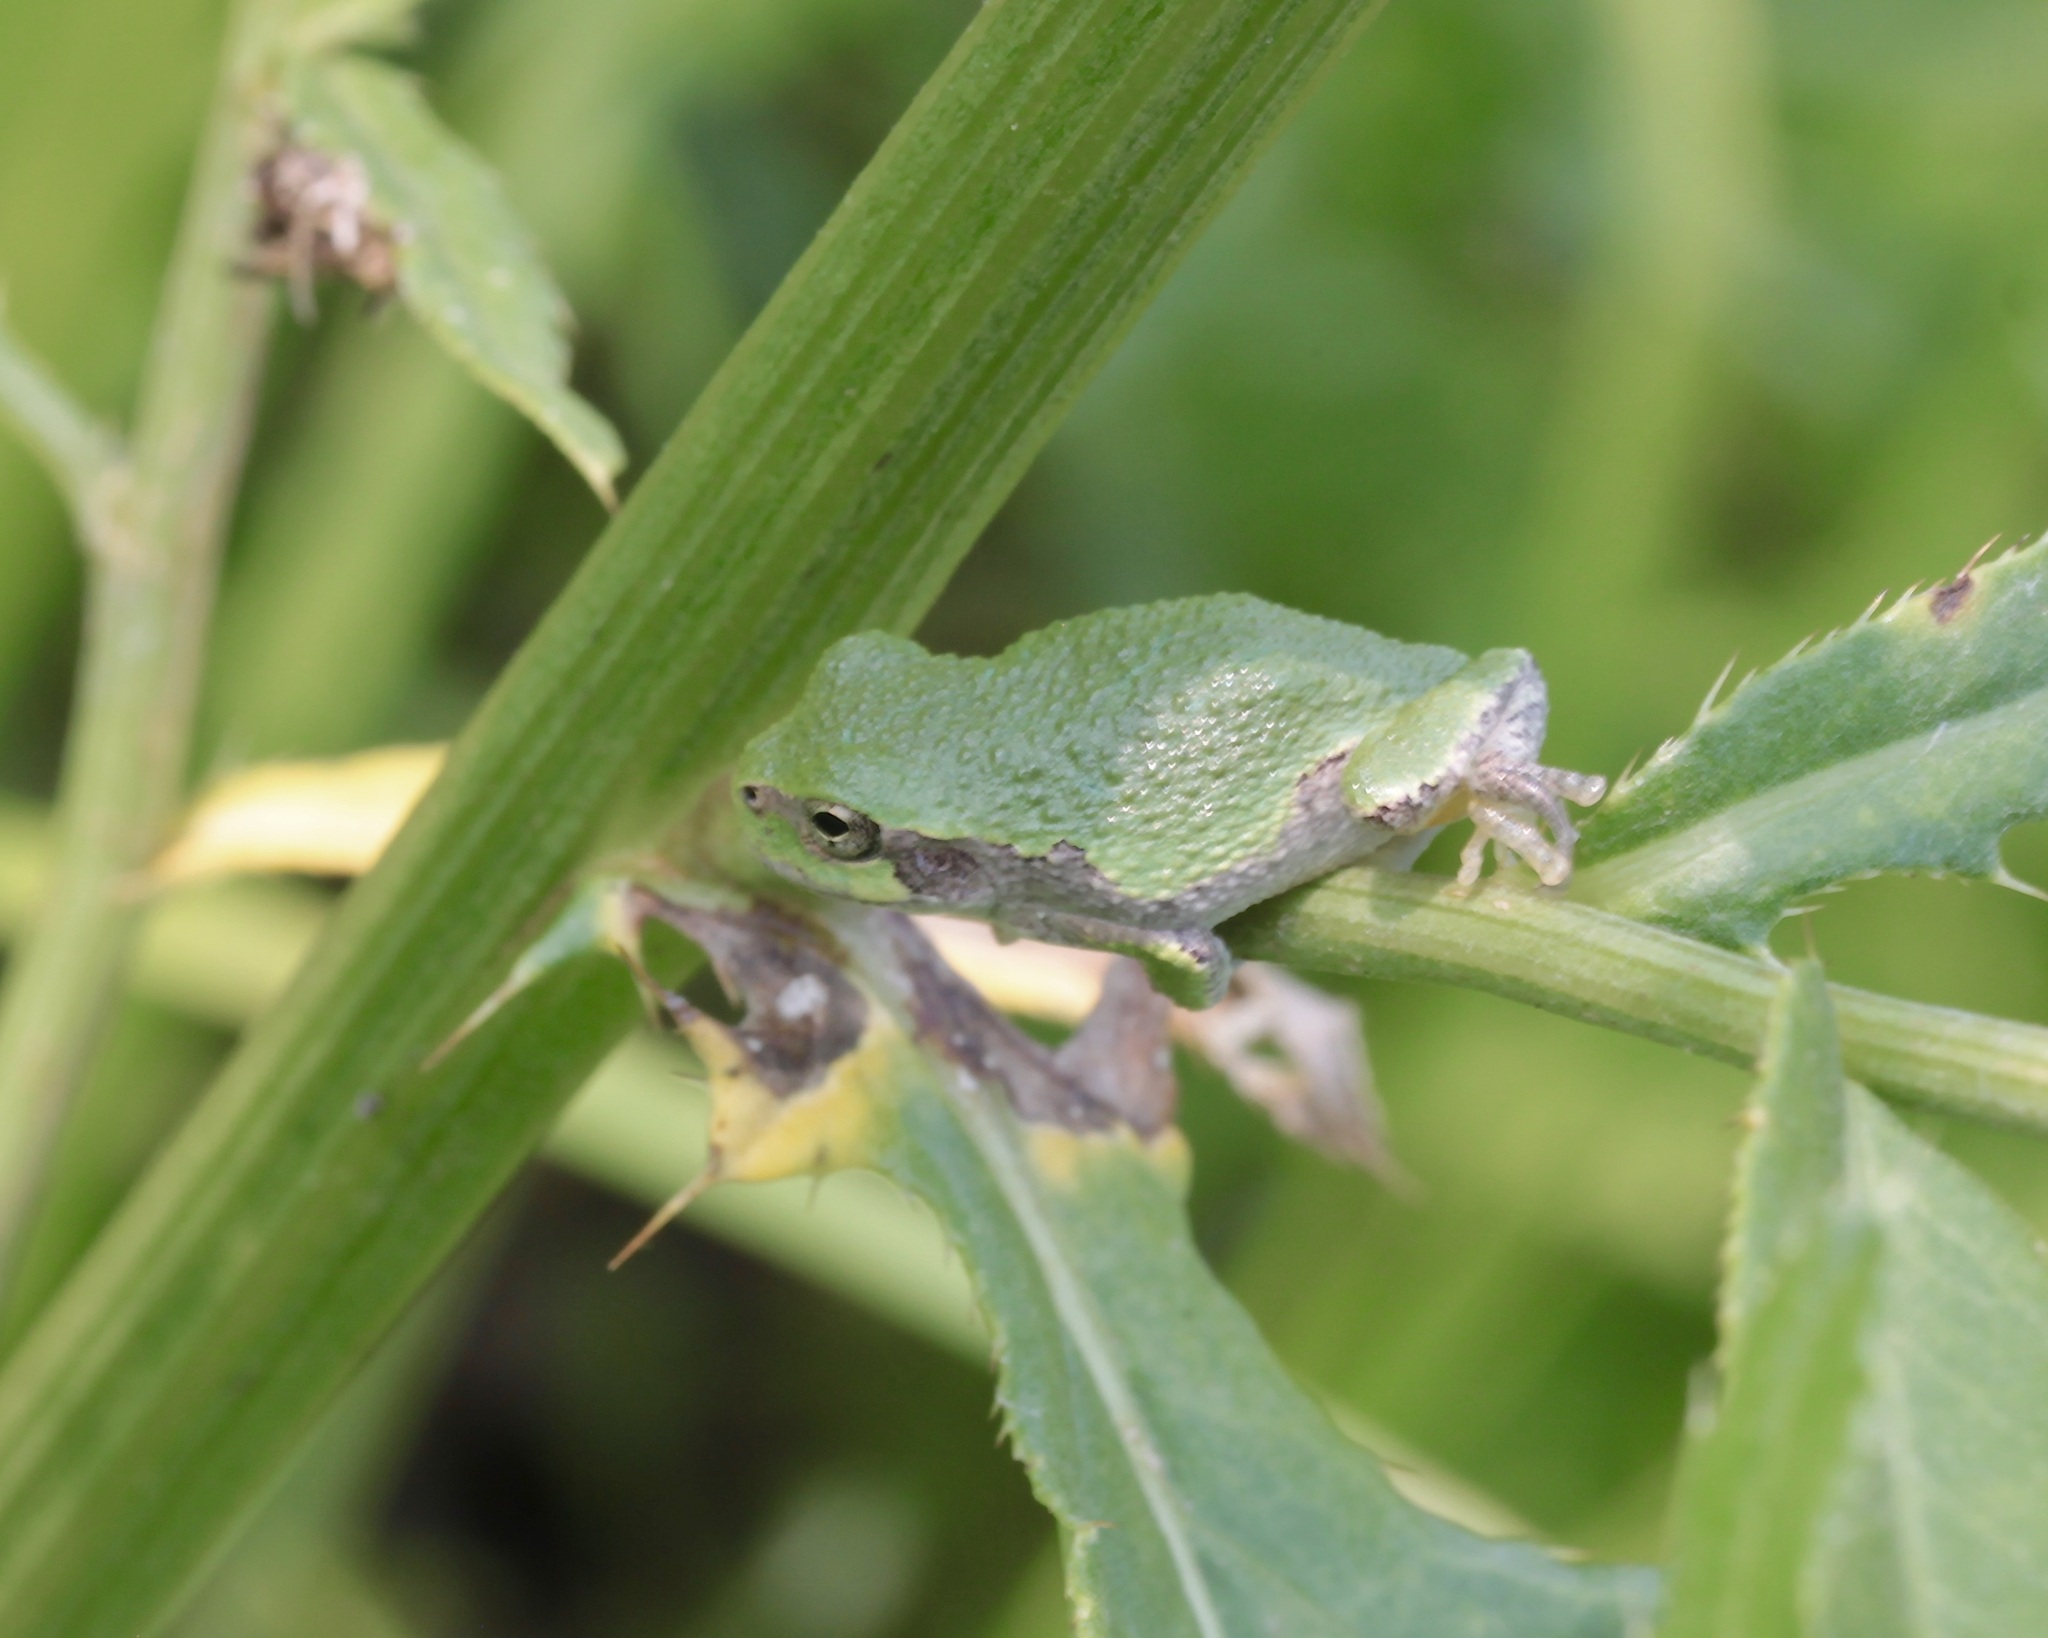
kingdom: Animalia
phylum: Chordata
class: Amphibia
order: Anura
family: Hylidae
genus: Dryophytes
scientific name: Dryophytes versicolor
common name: Gray treefrog
